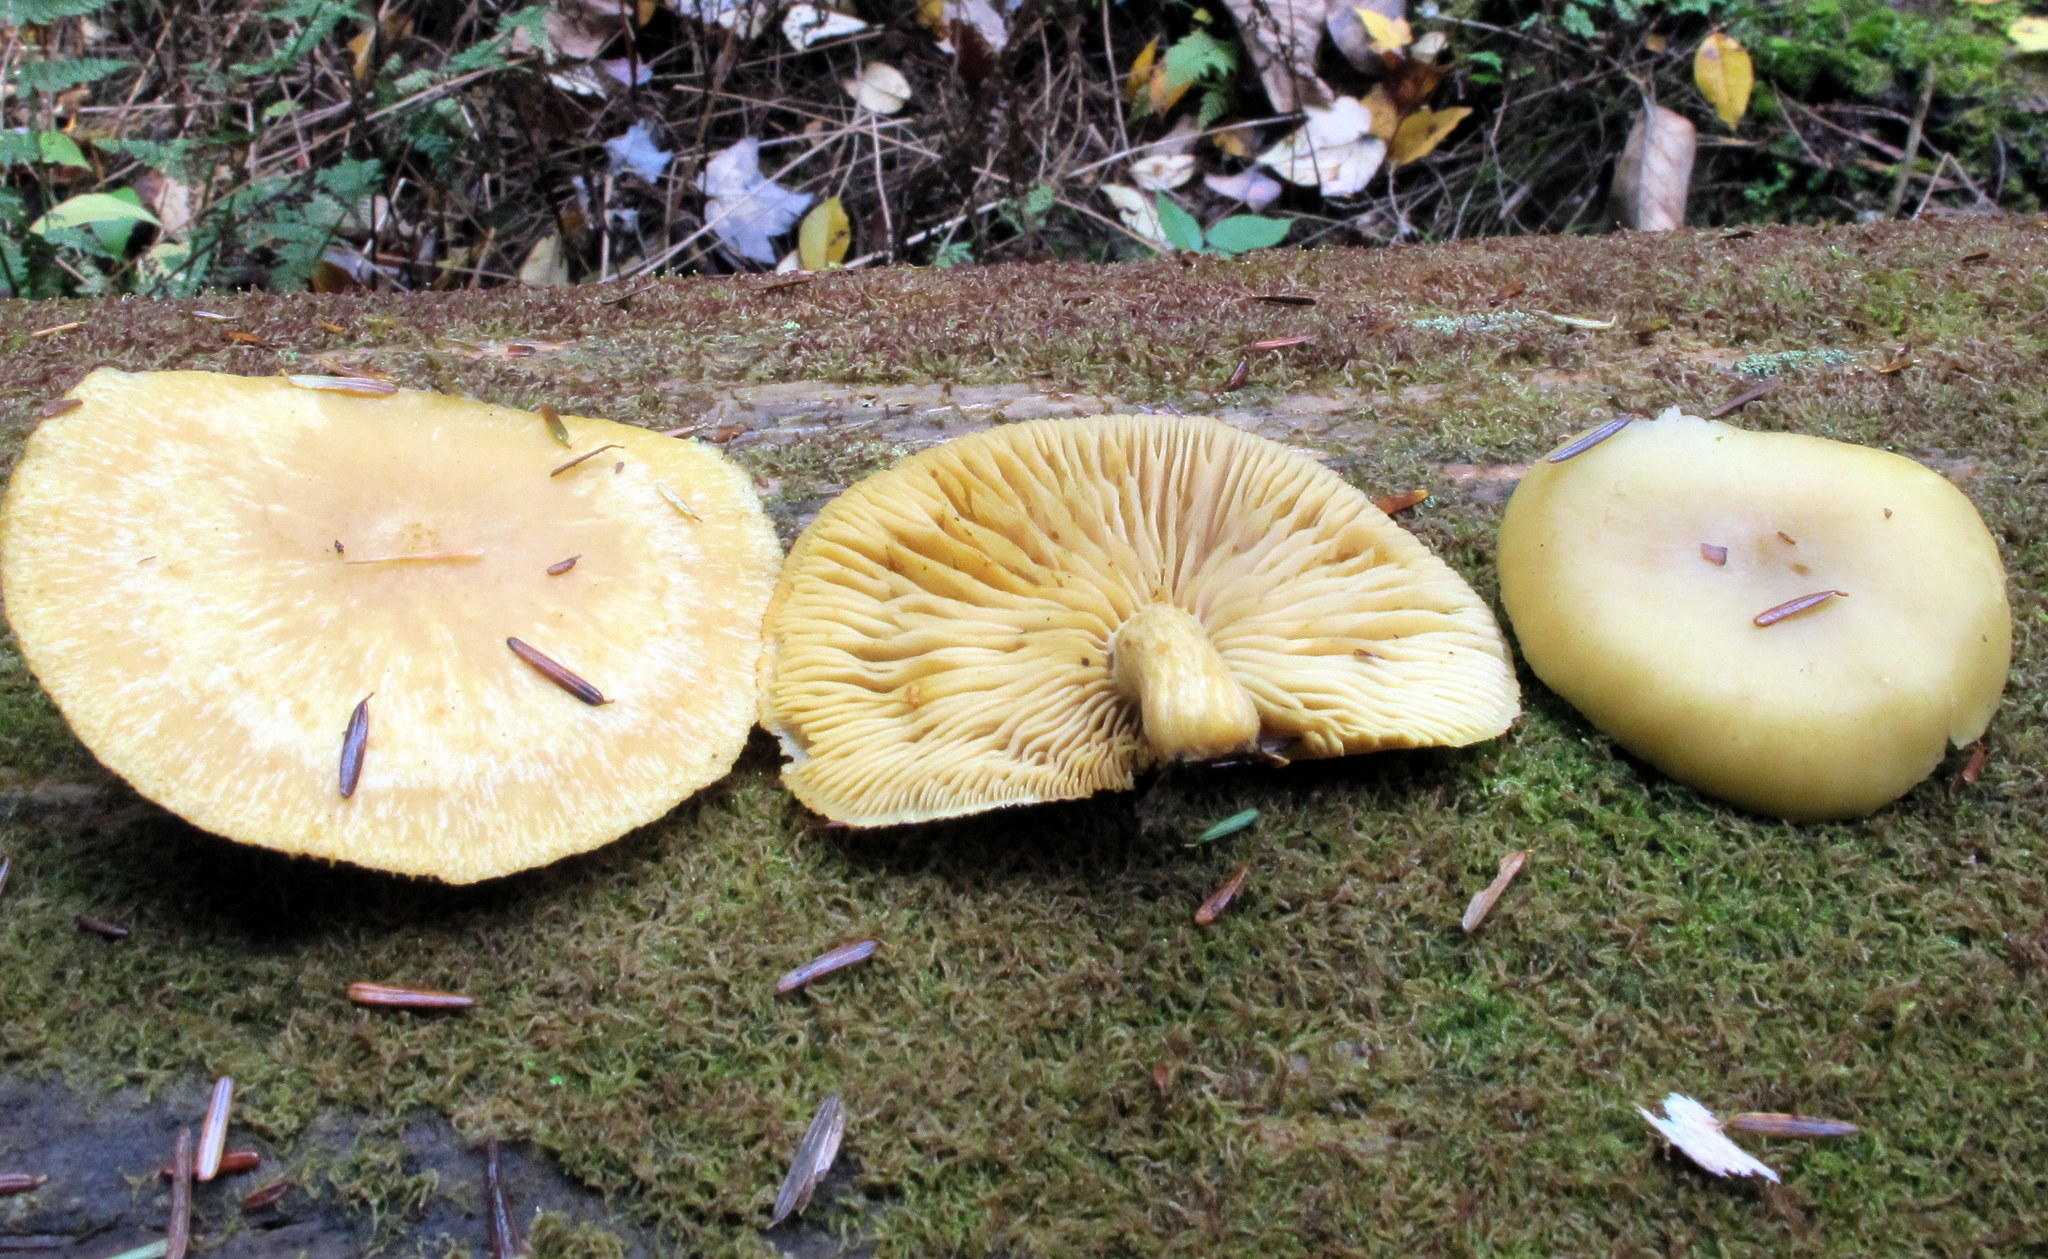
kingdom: Fungi
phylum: Basidiomycota
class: Agaricomycetes
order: Agaricales
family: Tricholomataceae
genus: Tricholomopsis
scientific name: Tricholomopsis sulfureoides
